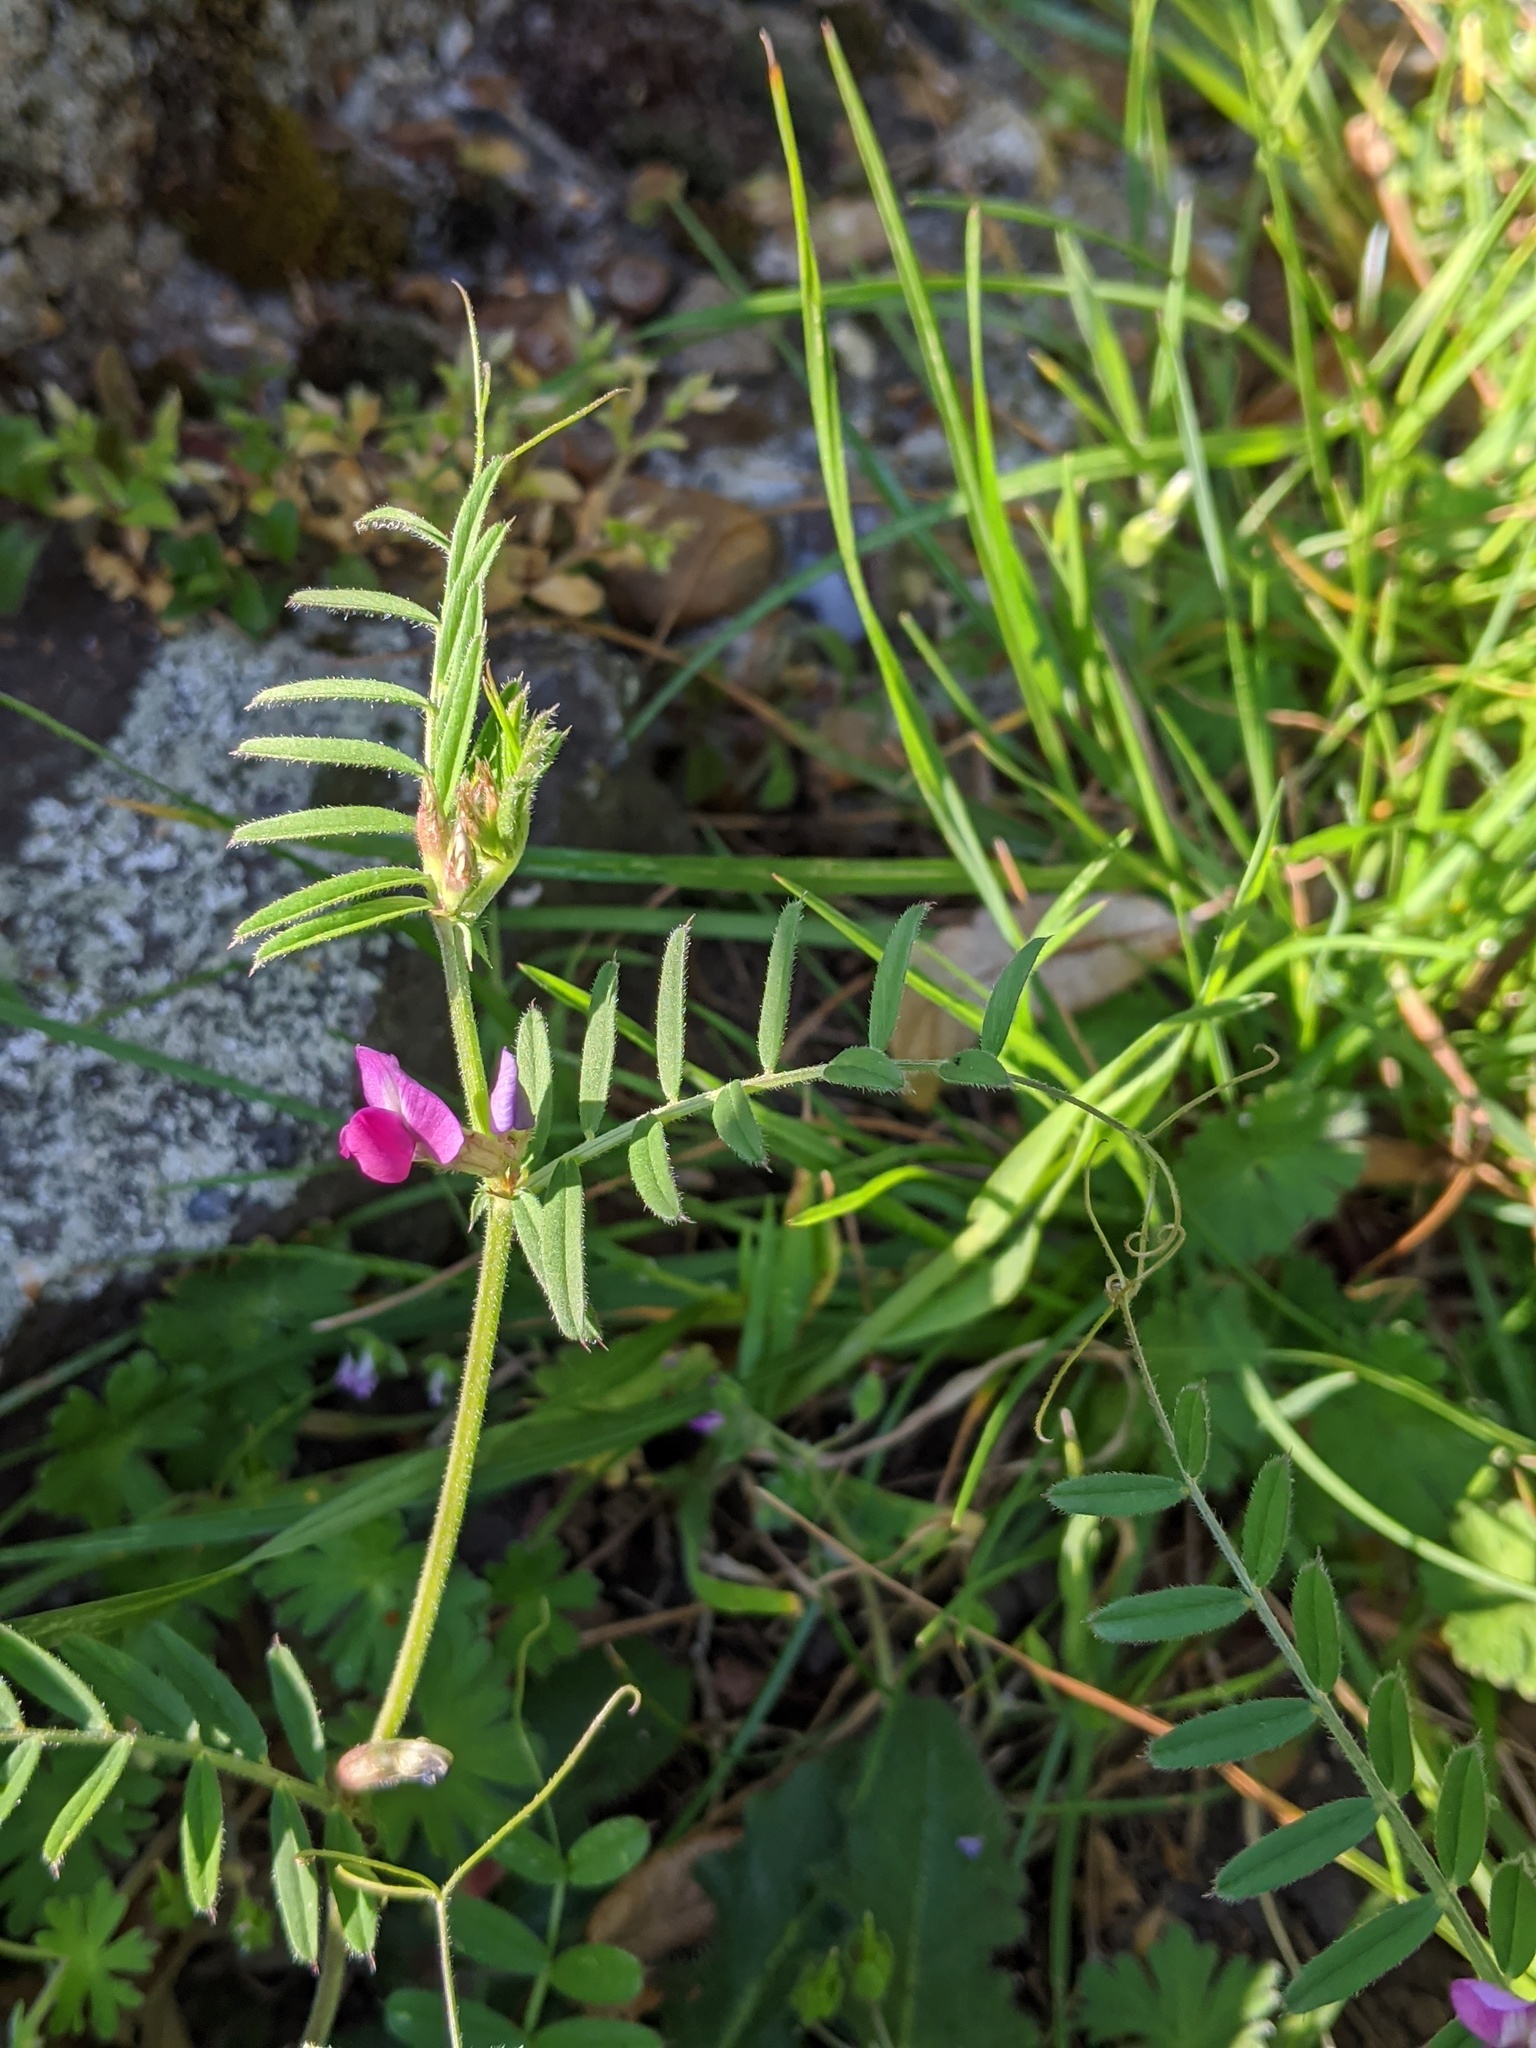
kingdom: Plantae
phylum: Tracheophyta
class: Magnoliopsida
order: Fabales
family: Fabaceae
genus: Vicia
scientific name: Vicia sativa
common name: Garden vetch
